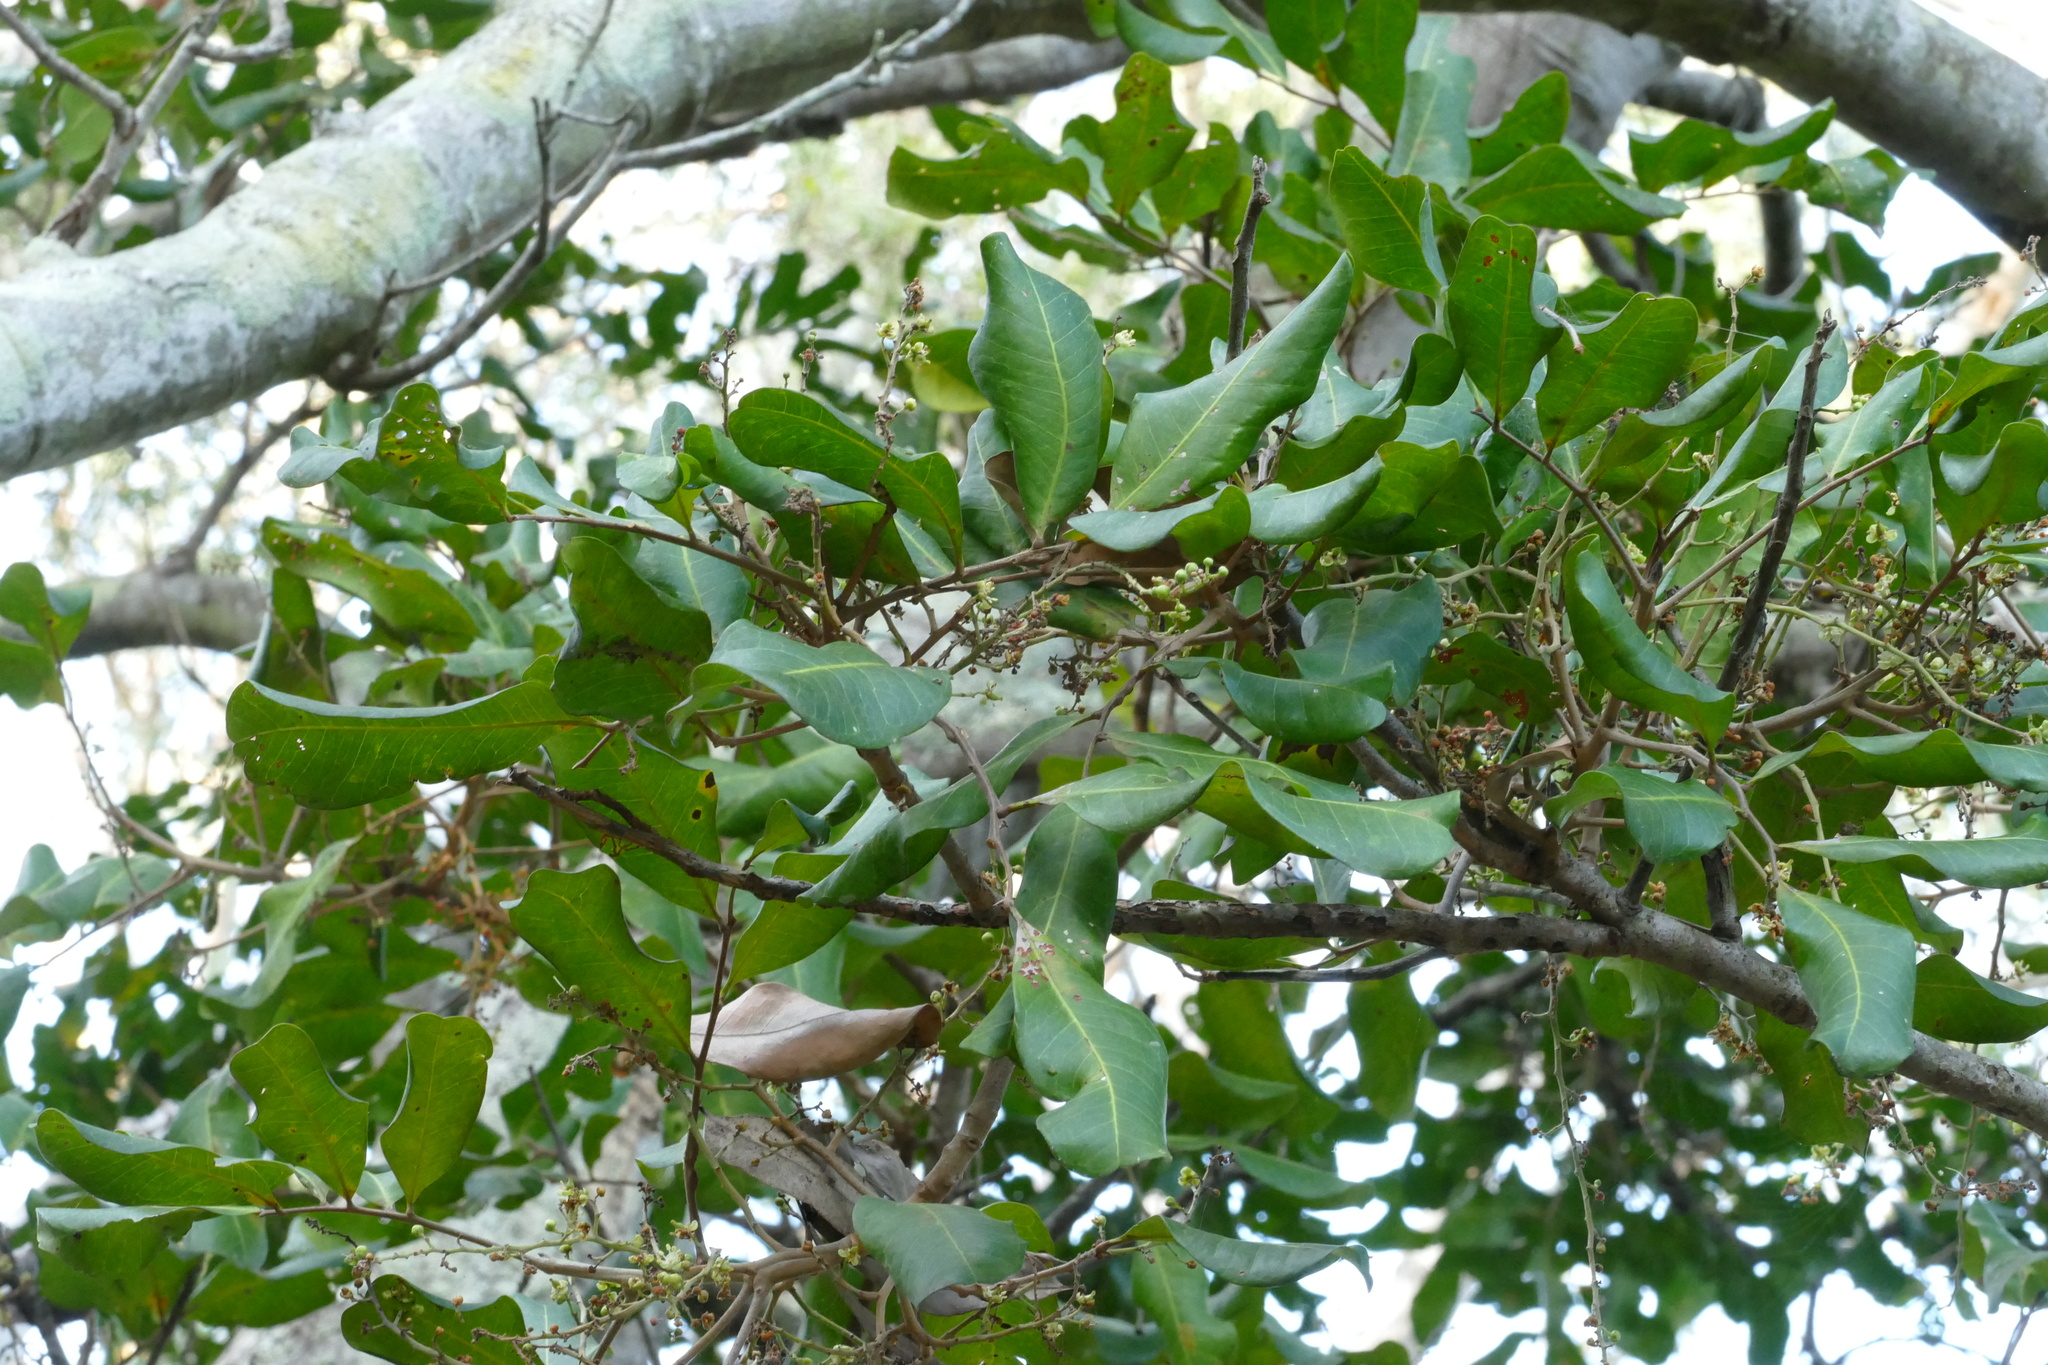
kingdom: Plantae
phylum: Tracheophyta
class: Magnoliopsida
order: Sapindales
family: Sapindaceae
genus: Cupaniopsis
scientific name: Cupaniopsis anacardioides
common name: Carrotwood
